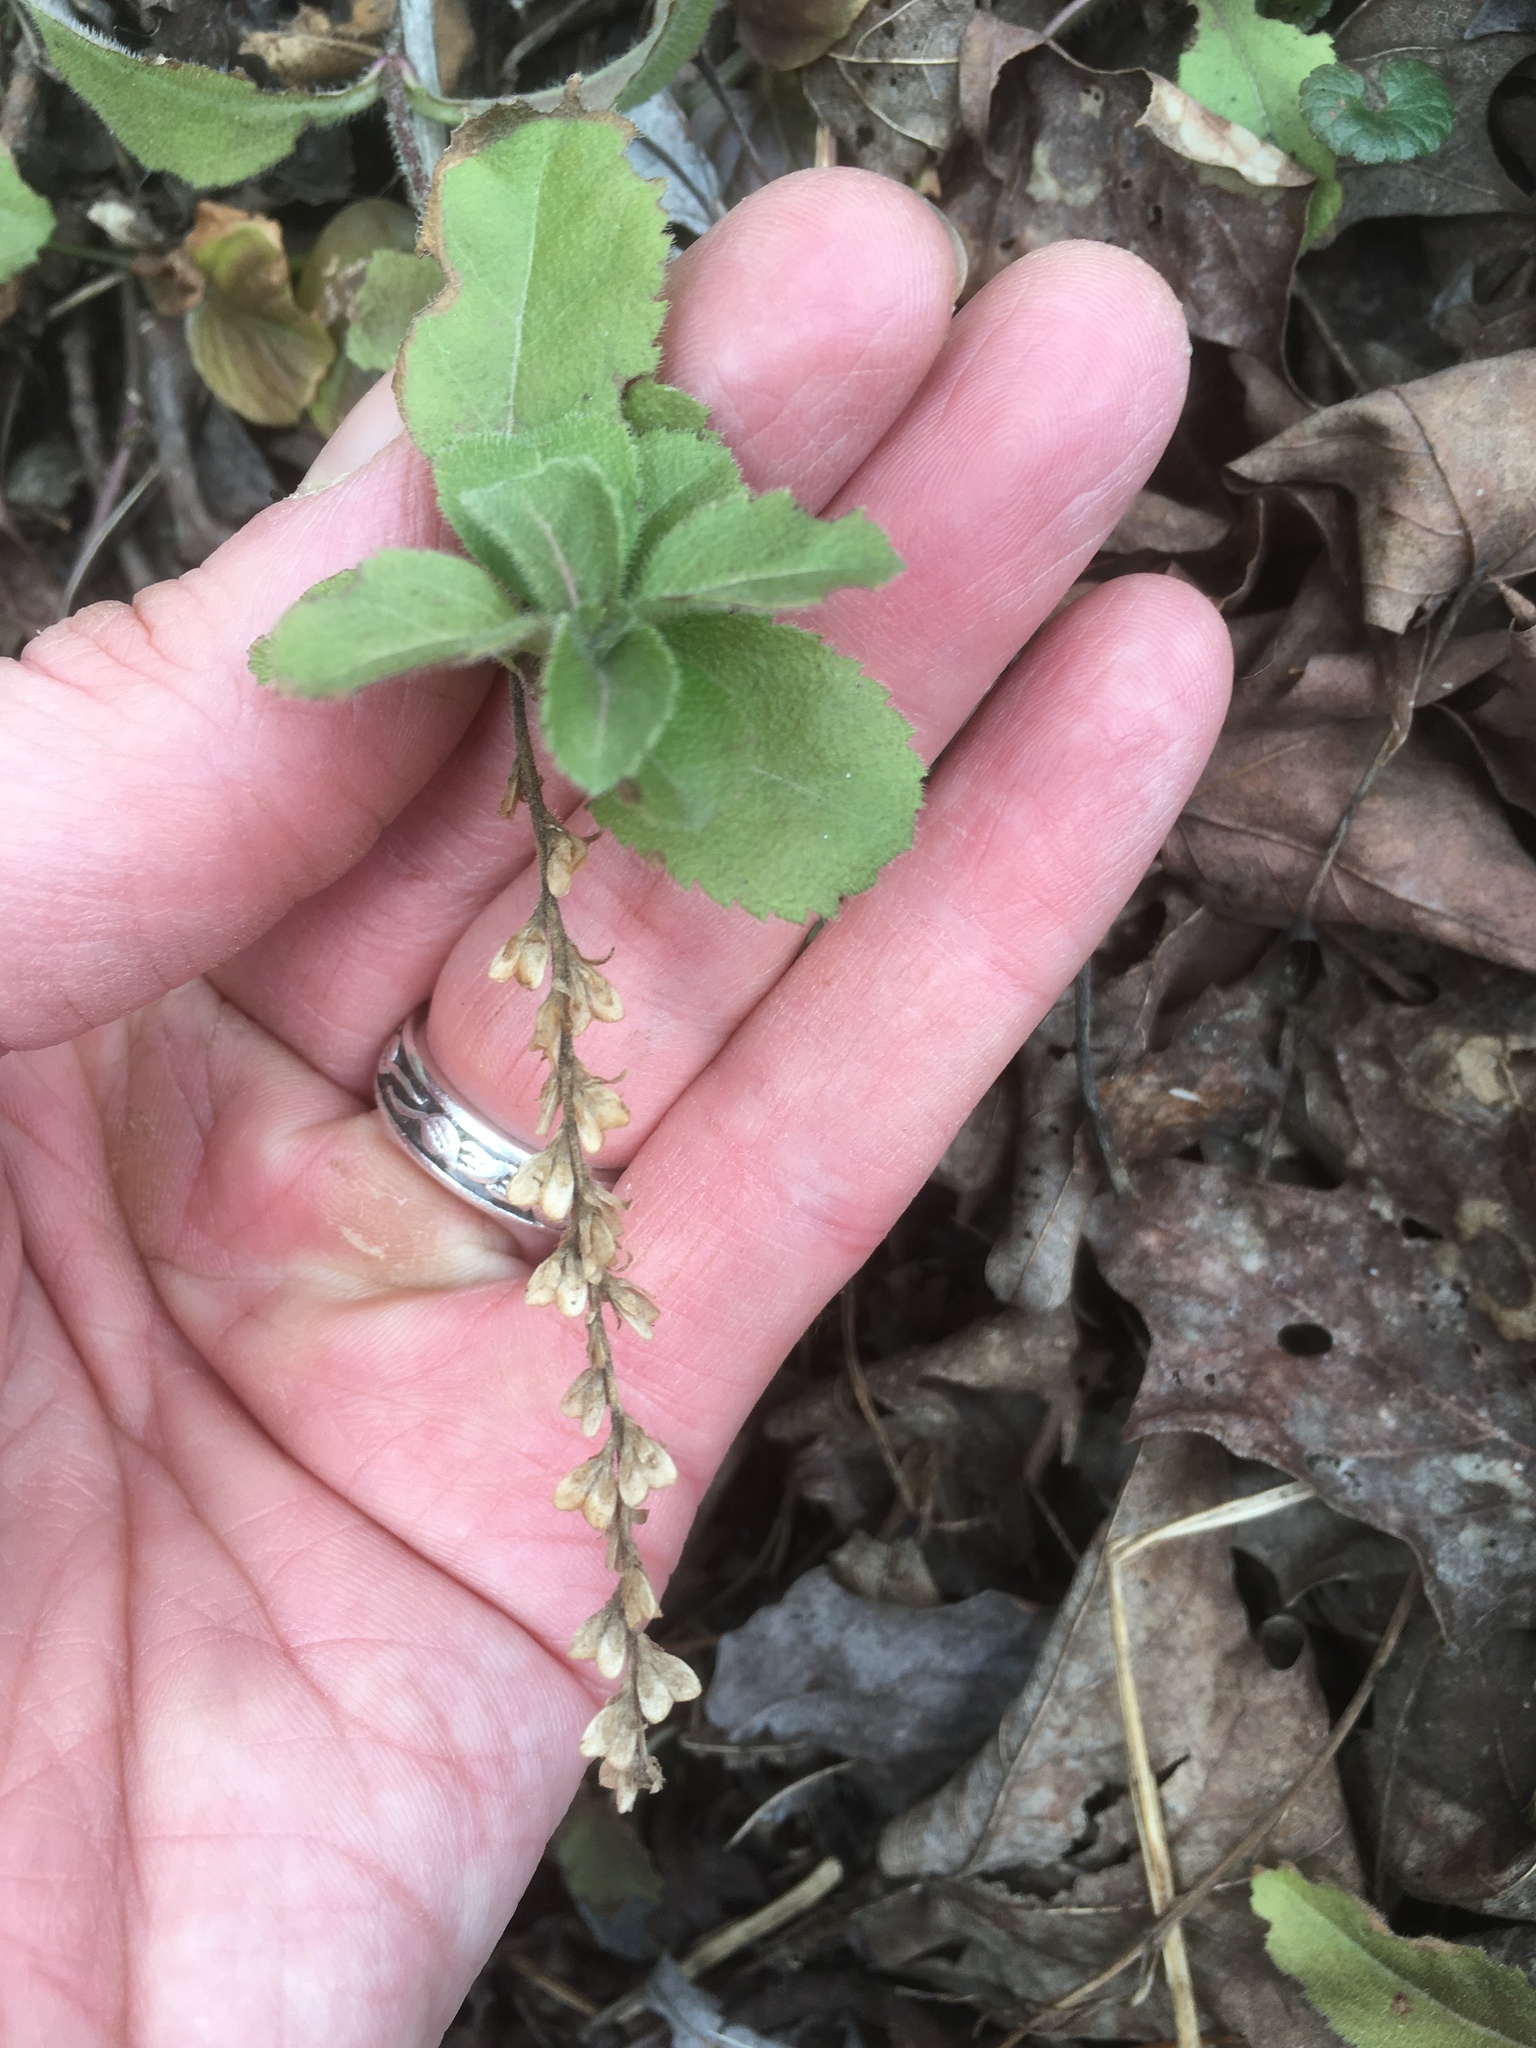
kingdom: Plantae
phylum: Tracheophyta
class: Magnoliopsida
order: Lamiales
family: Plantaginaceae
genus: Veronica
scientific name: Veronica officinalis
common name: Common speedwell
